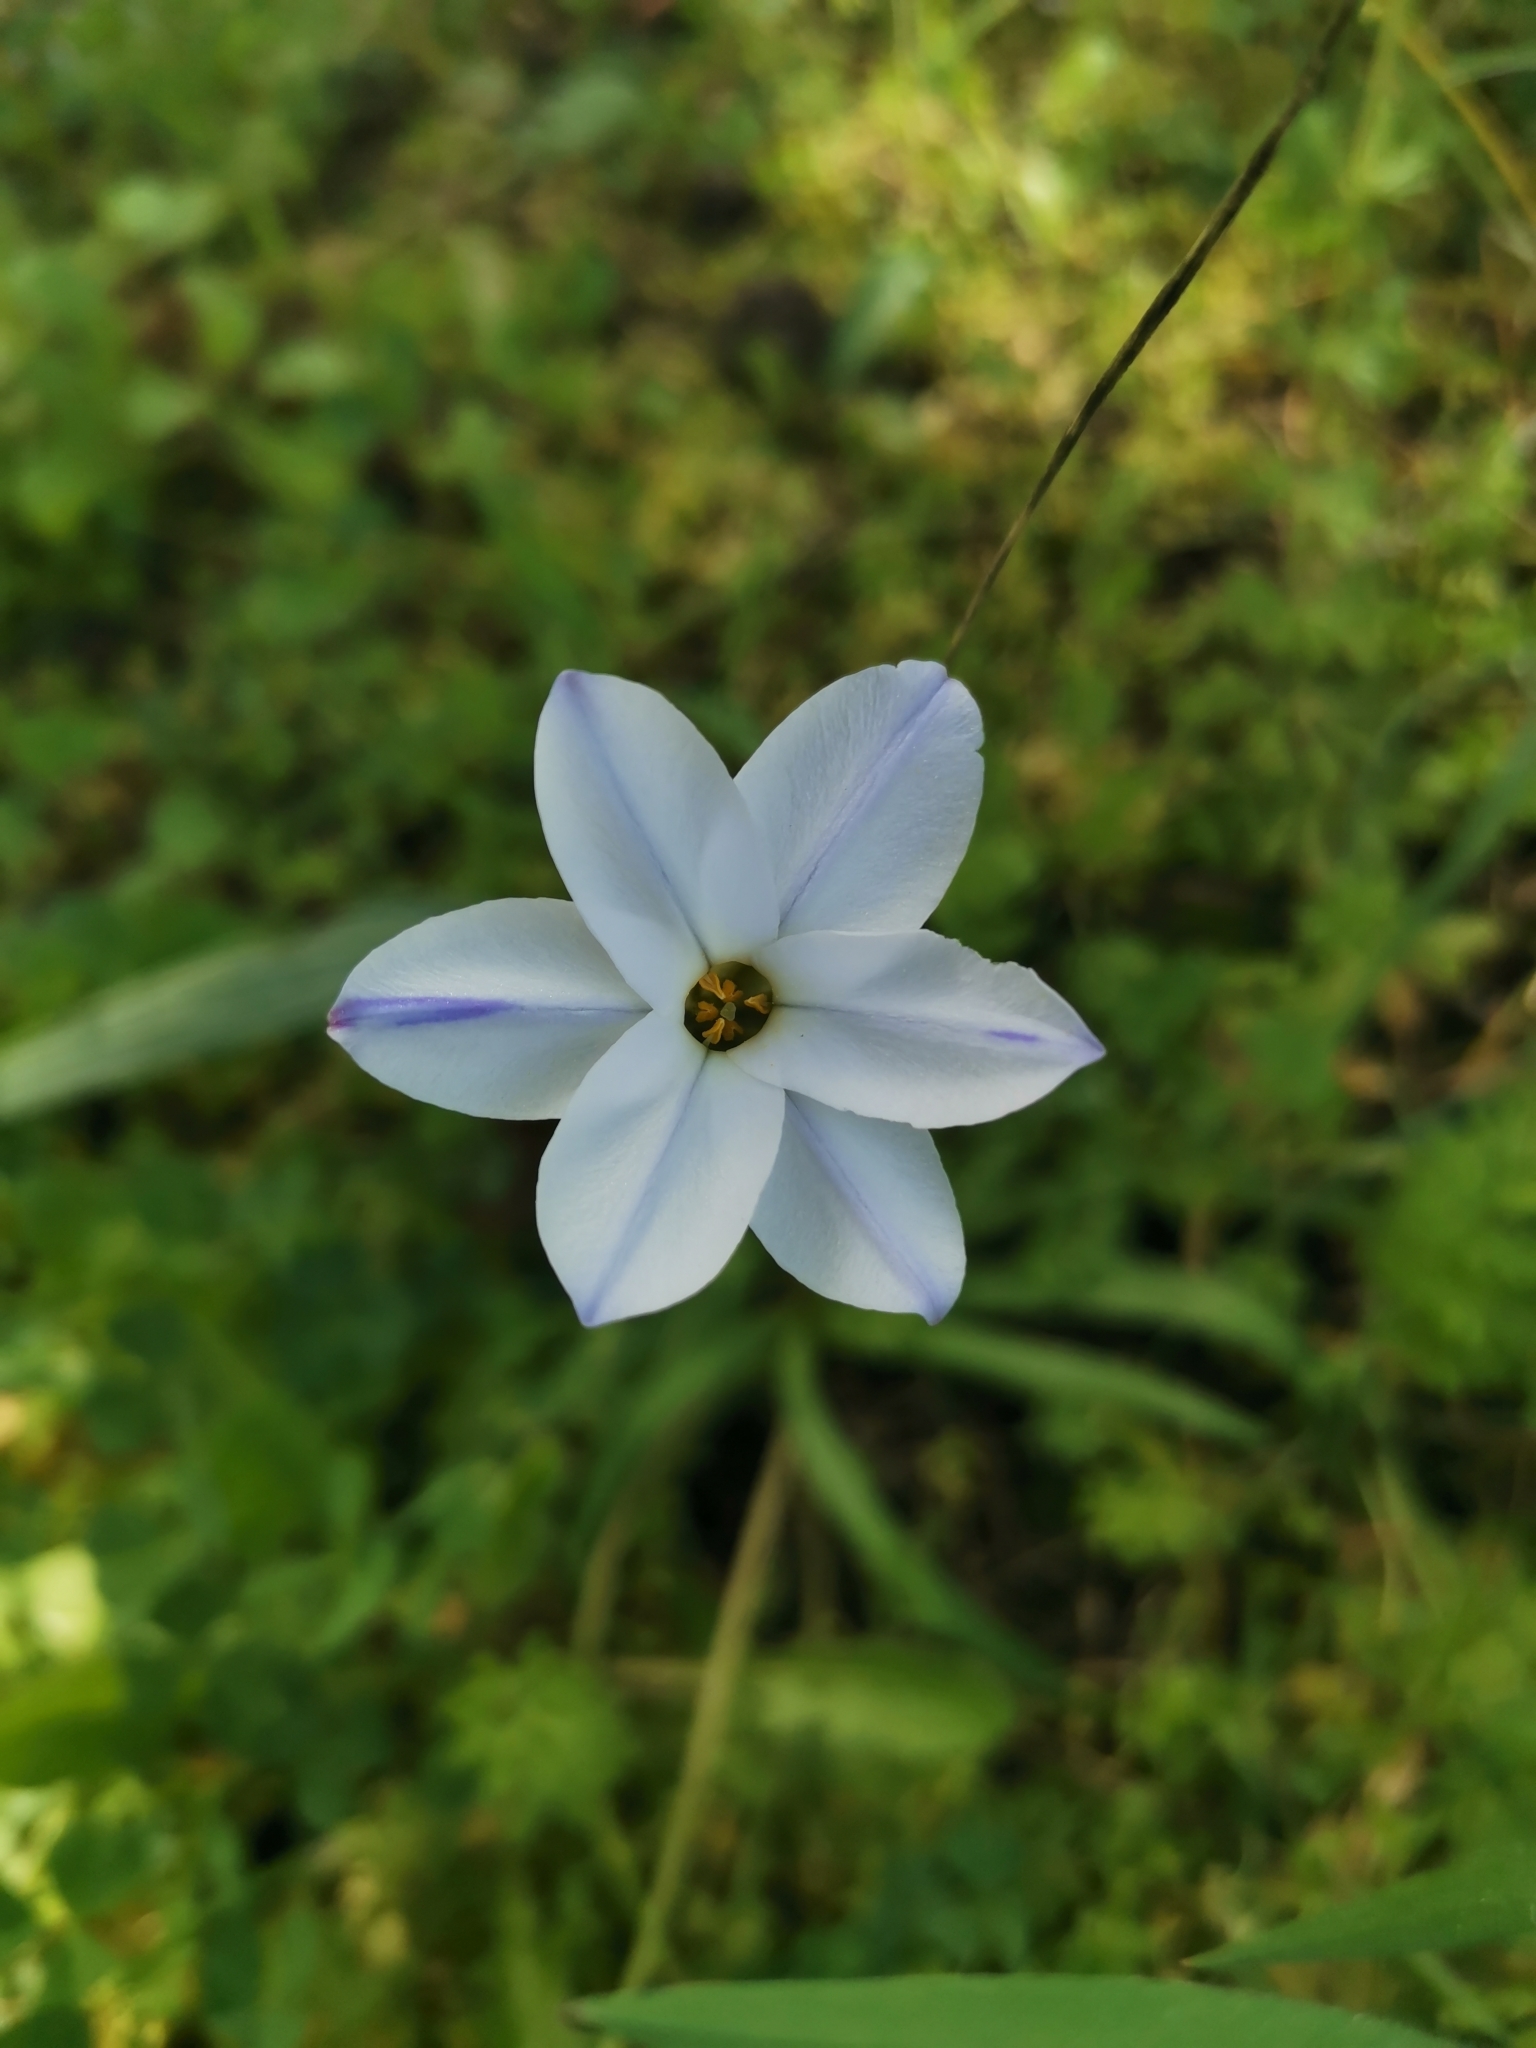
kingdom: Plantae
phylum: Tracheophyta
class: Liliopsida
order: Asparagales
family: Amaryllidaceae
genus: Ipheion
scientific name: Ipheion uniflorum
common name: Spring starflower
